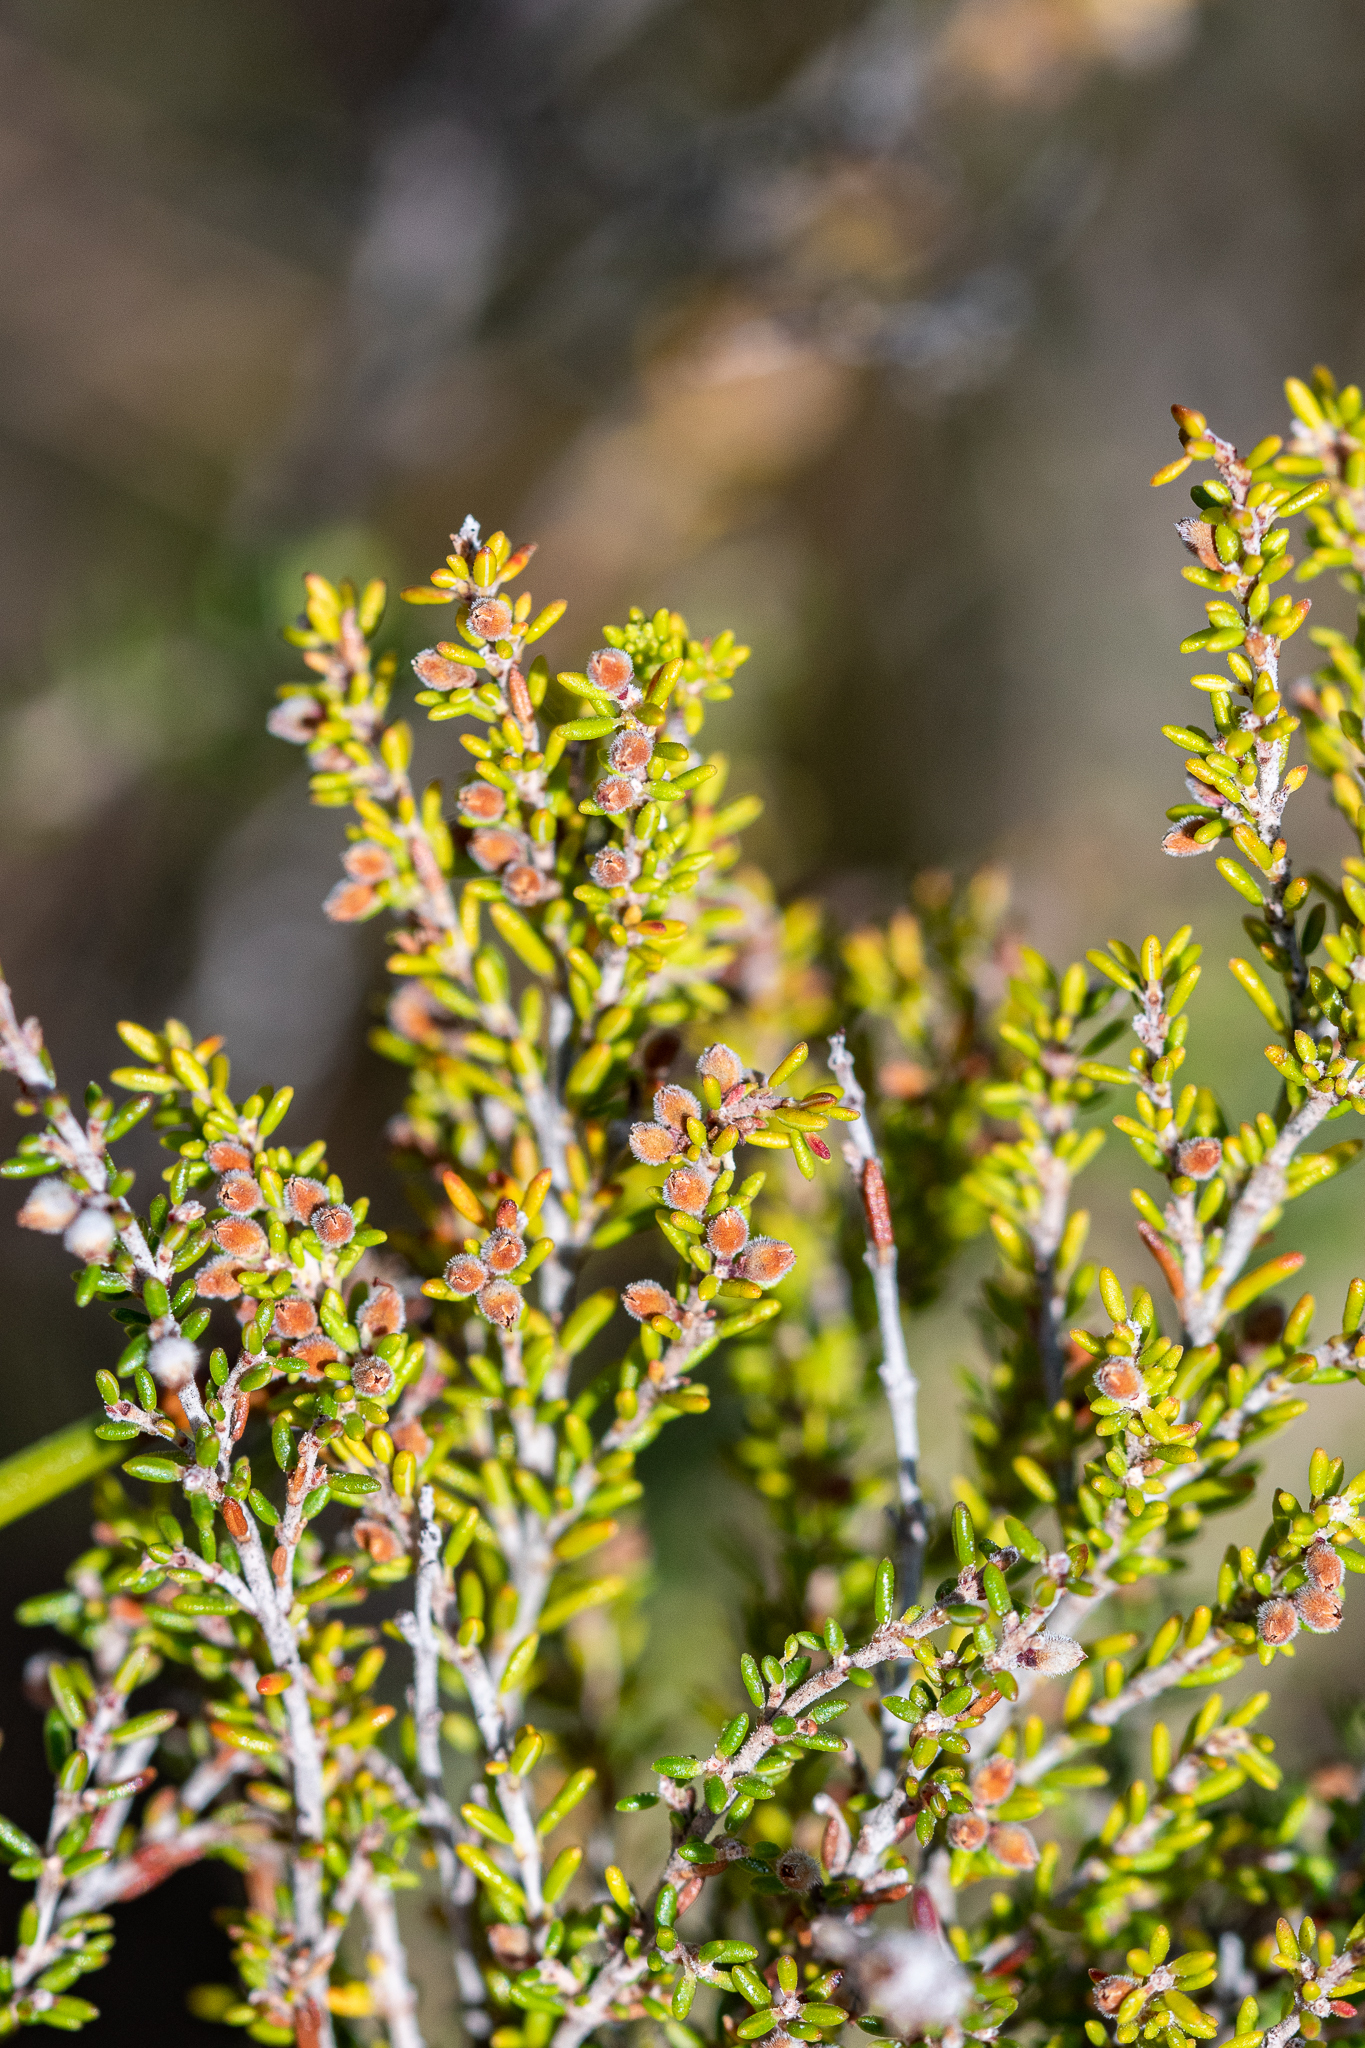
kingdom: Plantae
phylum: Tracheophyta
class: Magnoliopsida
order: Ericales
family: Ericaceae
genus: Erica
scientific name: Erica puberuliflora
